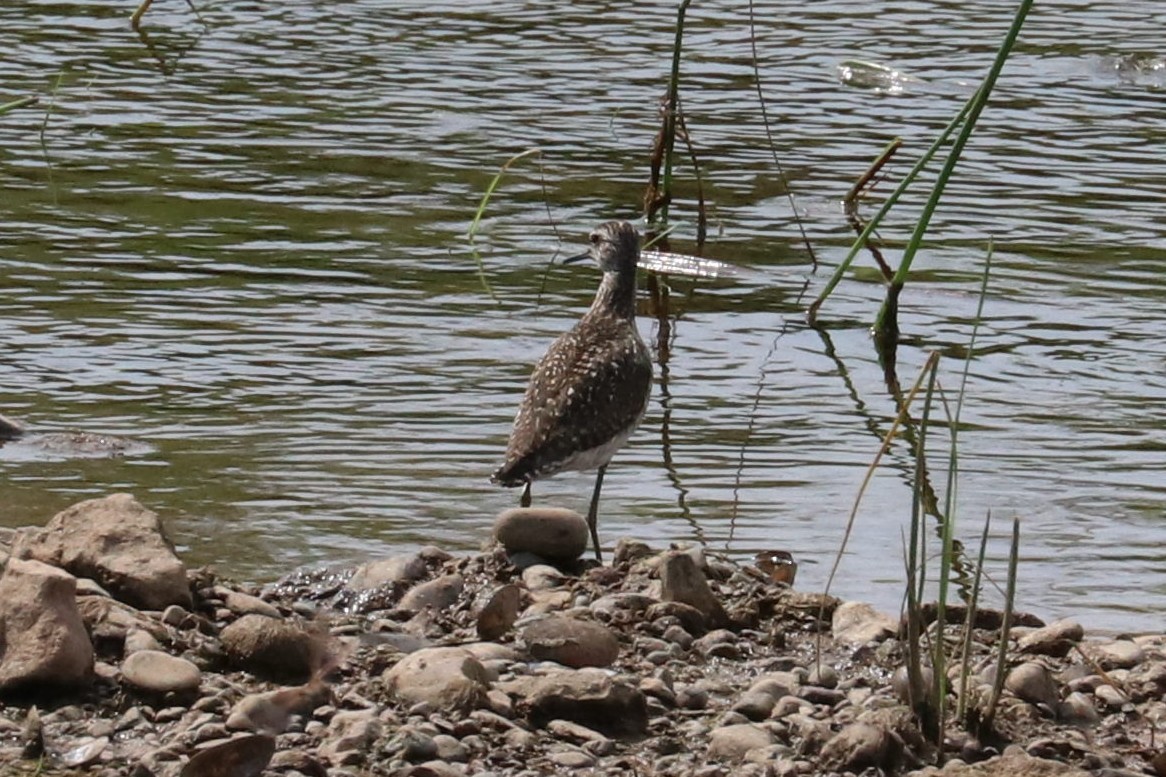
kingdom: Animalia
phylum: Chordata
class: Aves
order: Charadriiformes
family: Scolopacidae
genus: Tringa
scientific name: Tringa glareola
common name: Wood sandpiper
